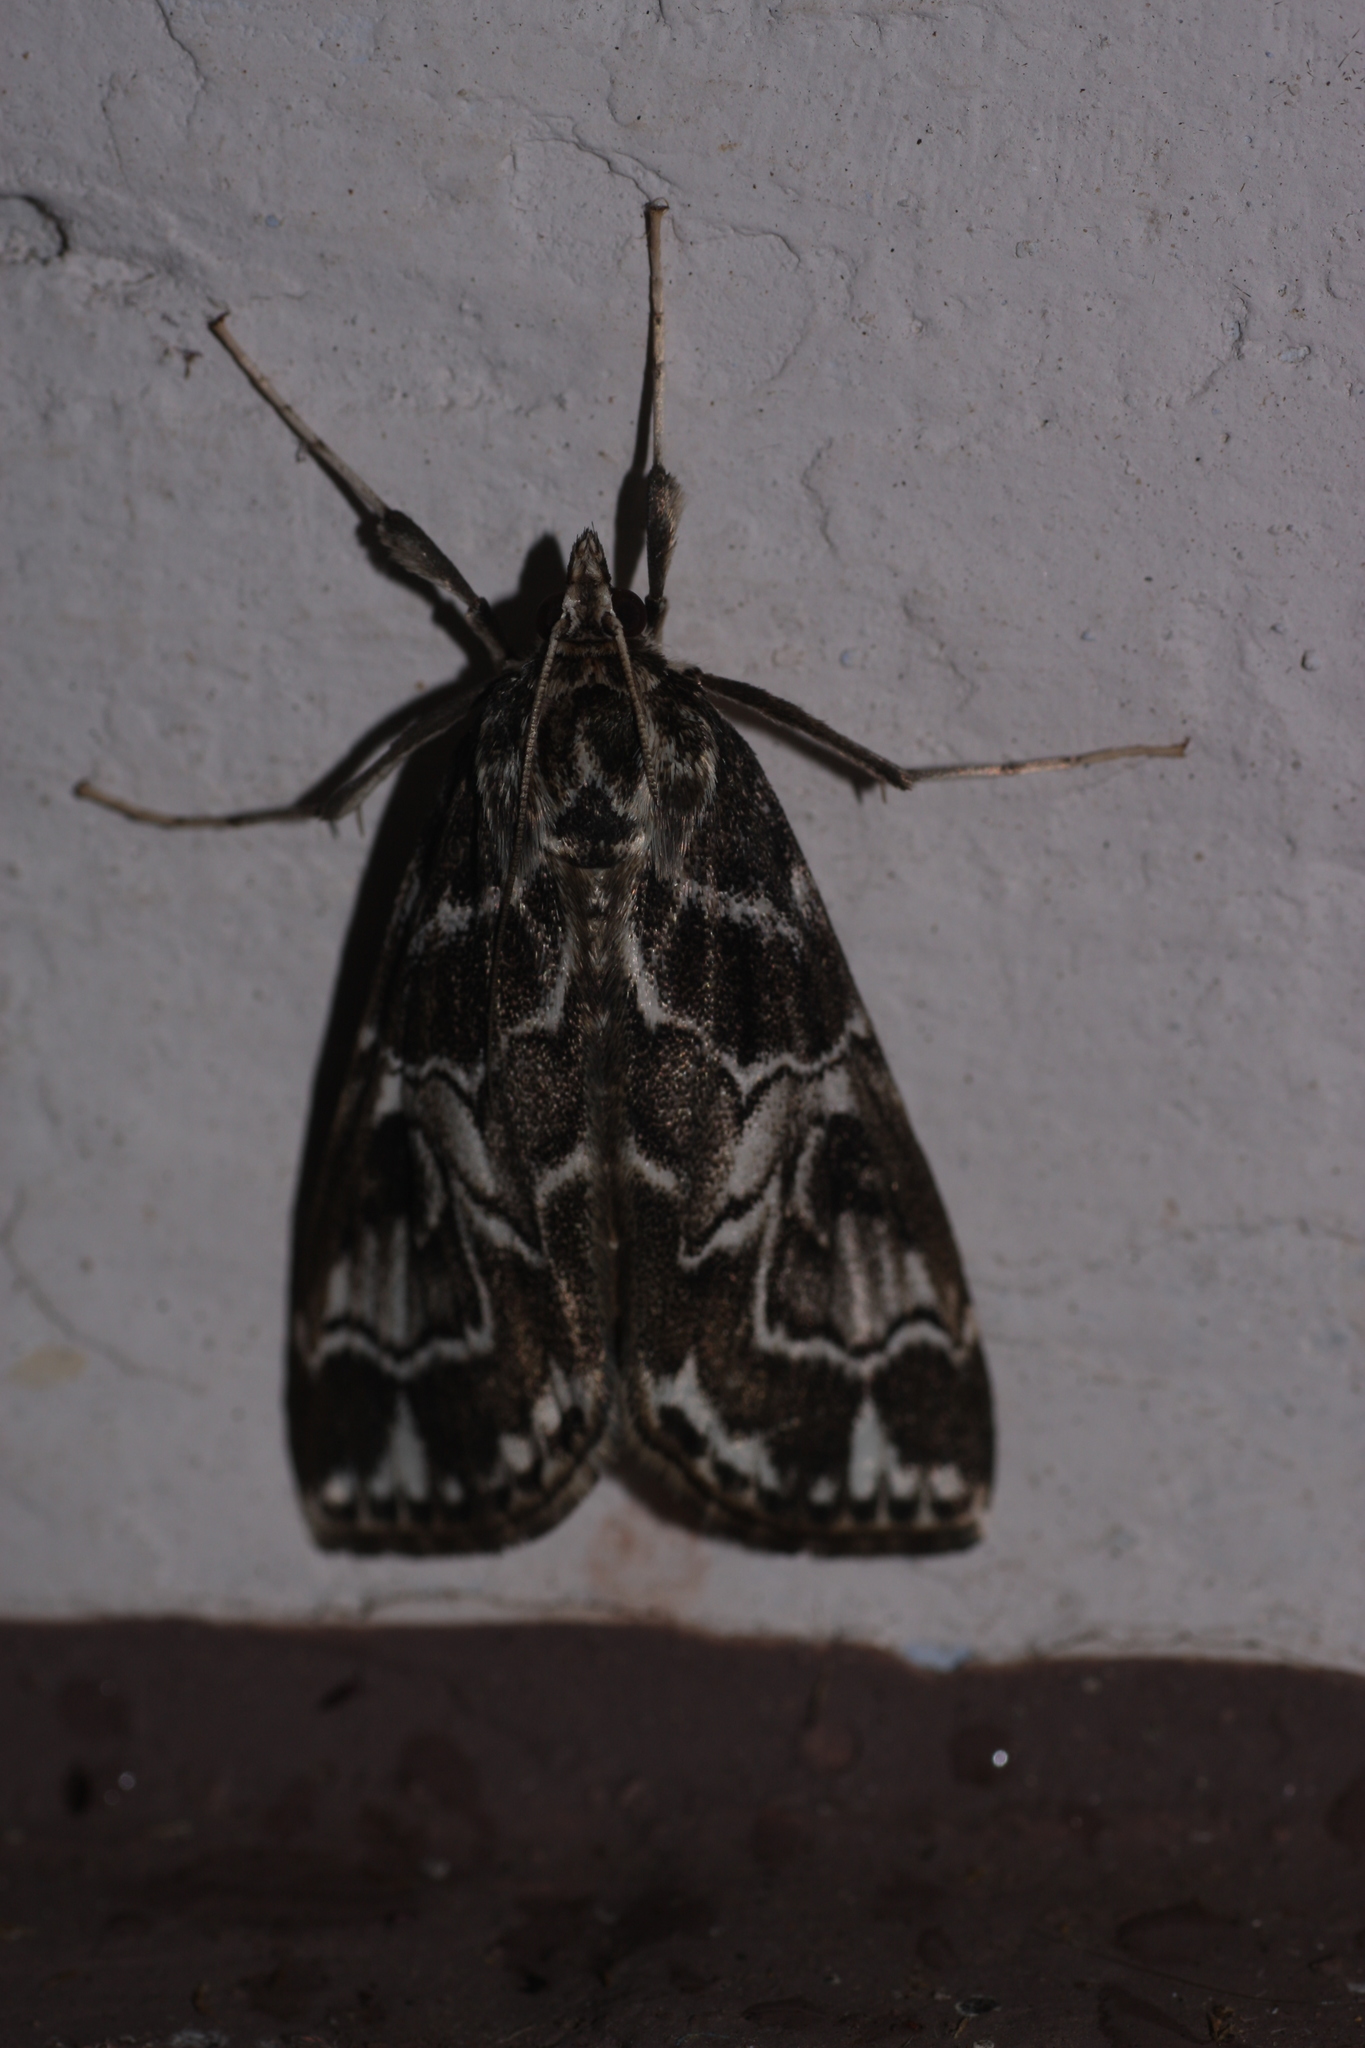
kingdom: Animalia
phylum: Arthropoda
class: Insecta
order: Lepidoptera
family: Crambidae
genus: Paracymoriza
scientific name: Paracymoriza olivalis
